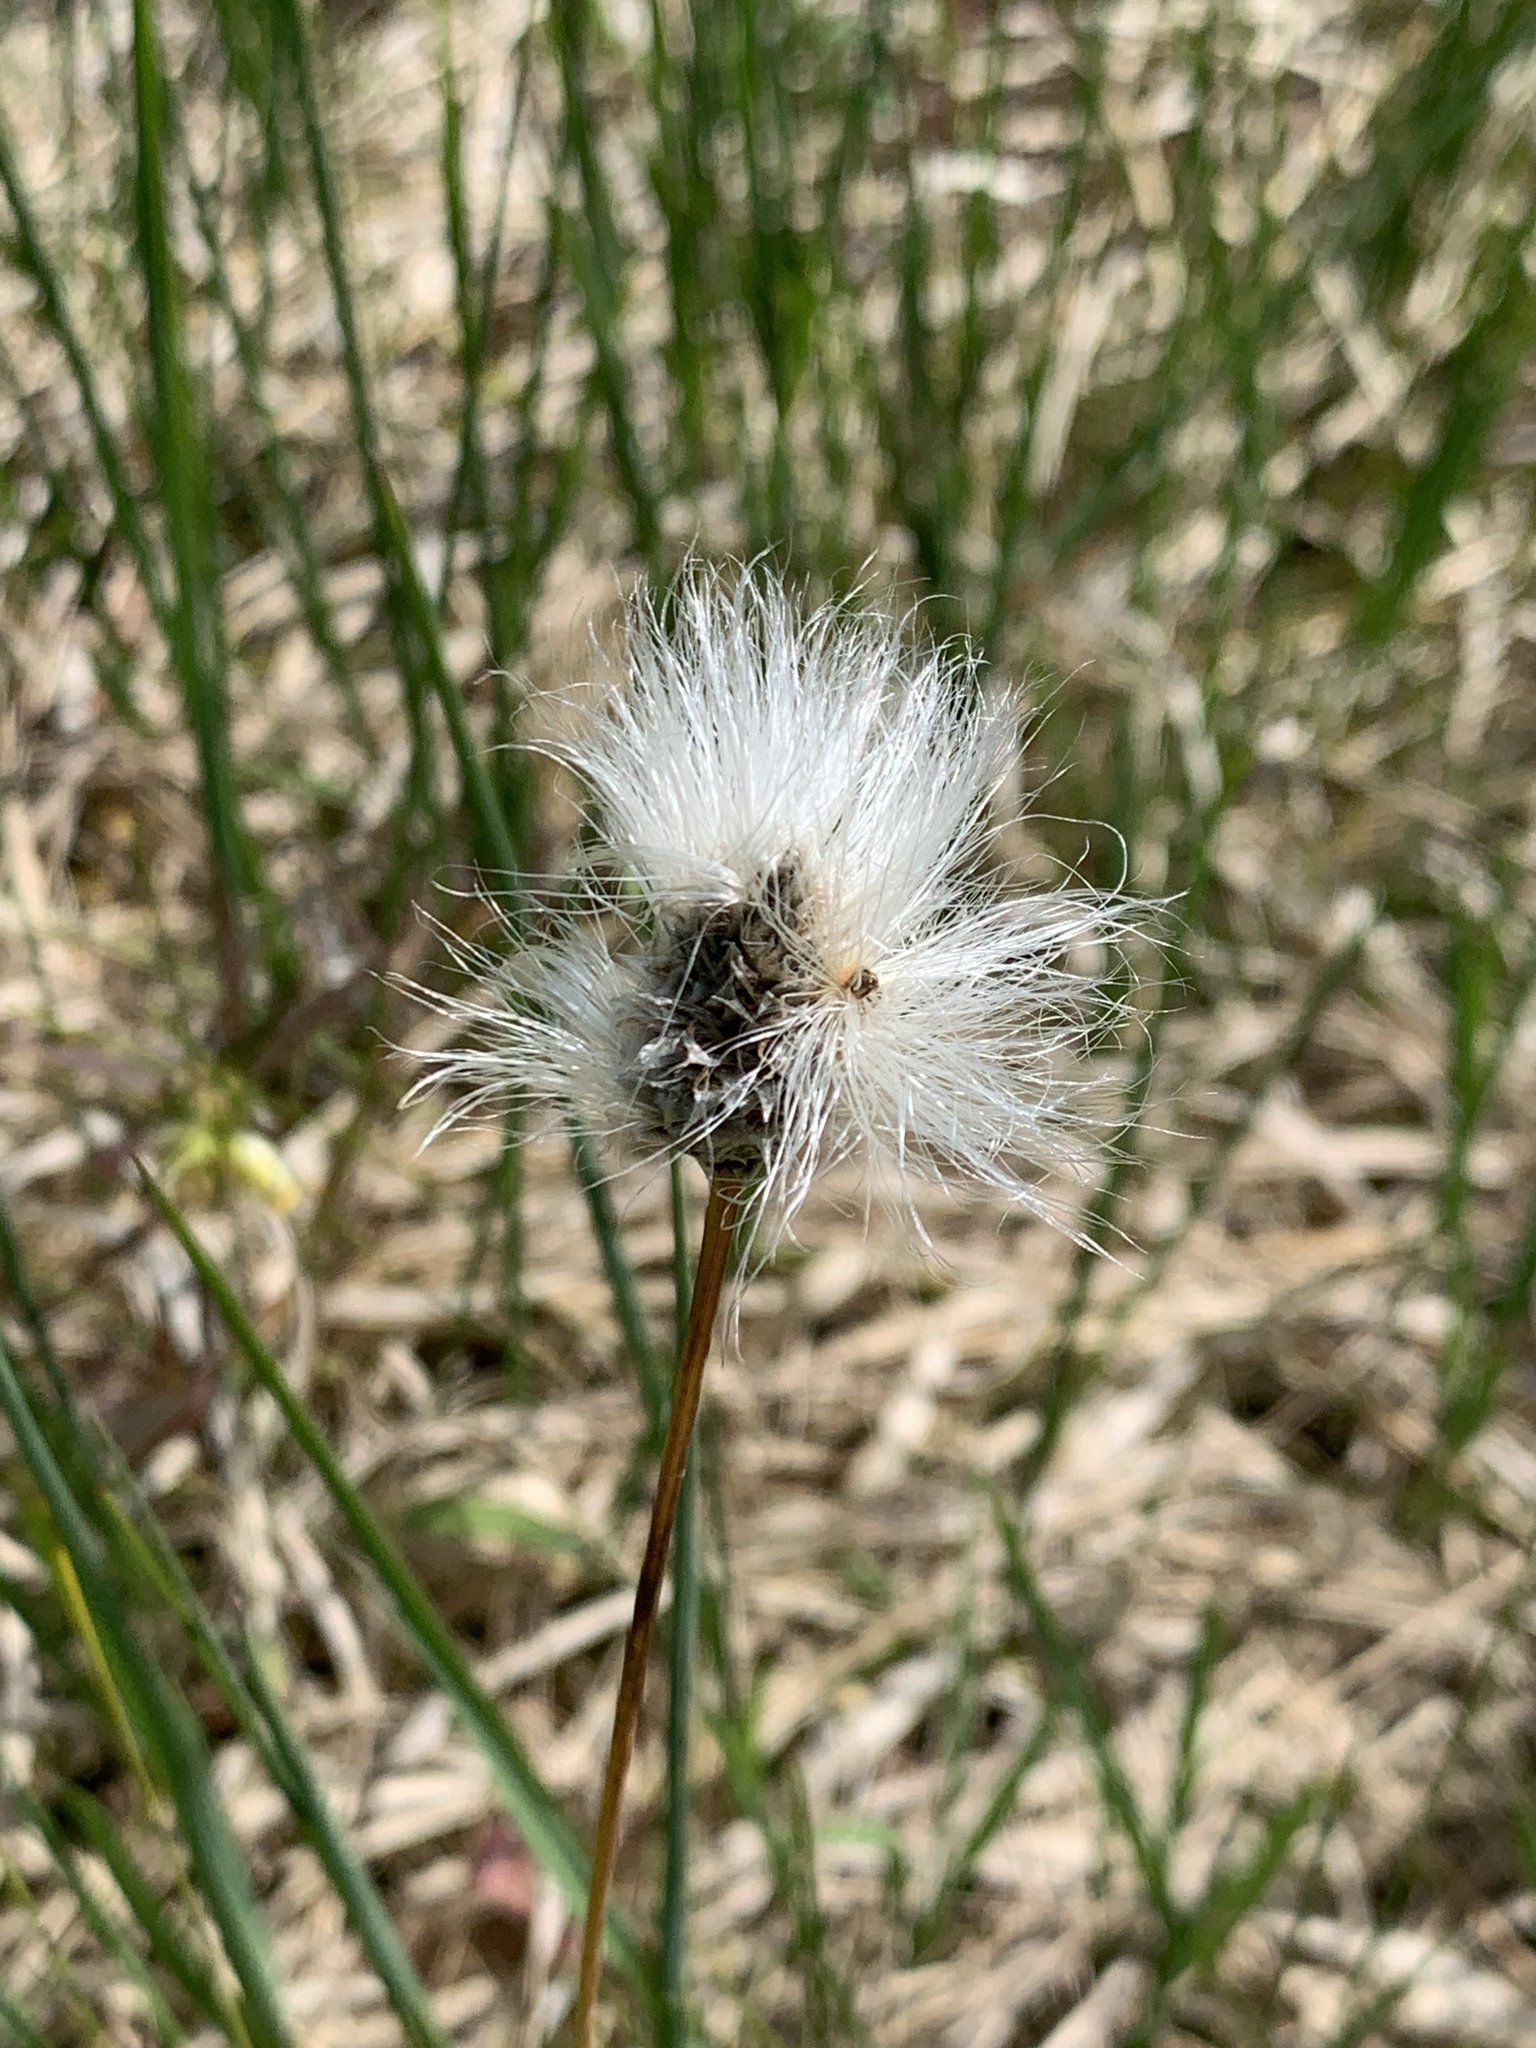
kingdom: Plantae
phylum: Tracheophyta
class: Liliopsida
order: Poales
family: Cyperaceae
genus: Eriophorum
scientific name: Eriophorum vaginatum
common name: Hare's-tail cottongrass
